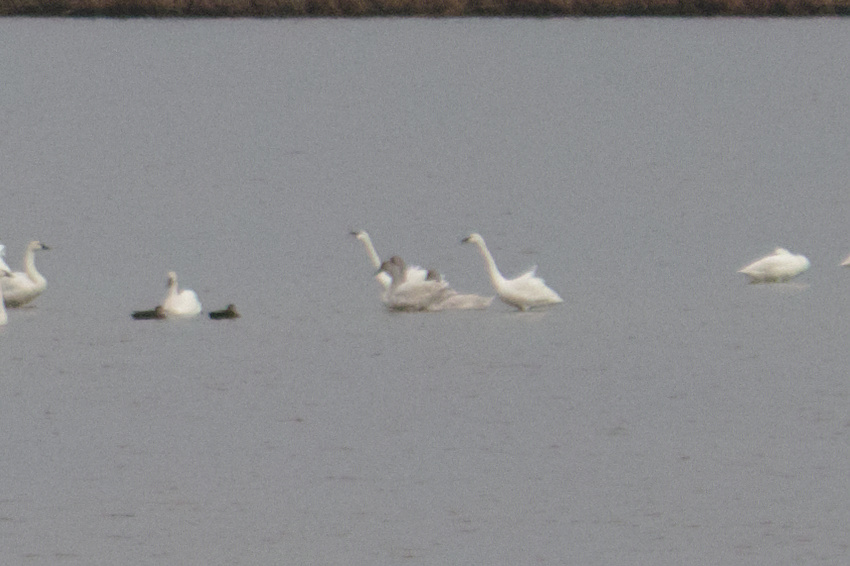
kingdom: Animalia
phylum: Chordata
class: Aves
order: Anseriformes
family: Anatidae
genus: Cygnus
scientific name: Cygnus columbianus
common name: Tundra swan
